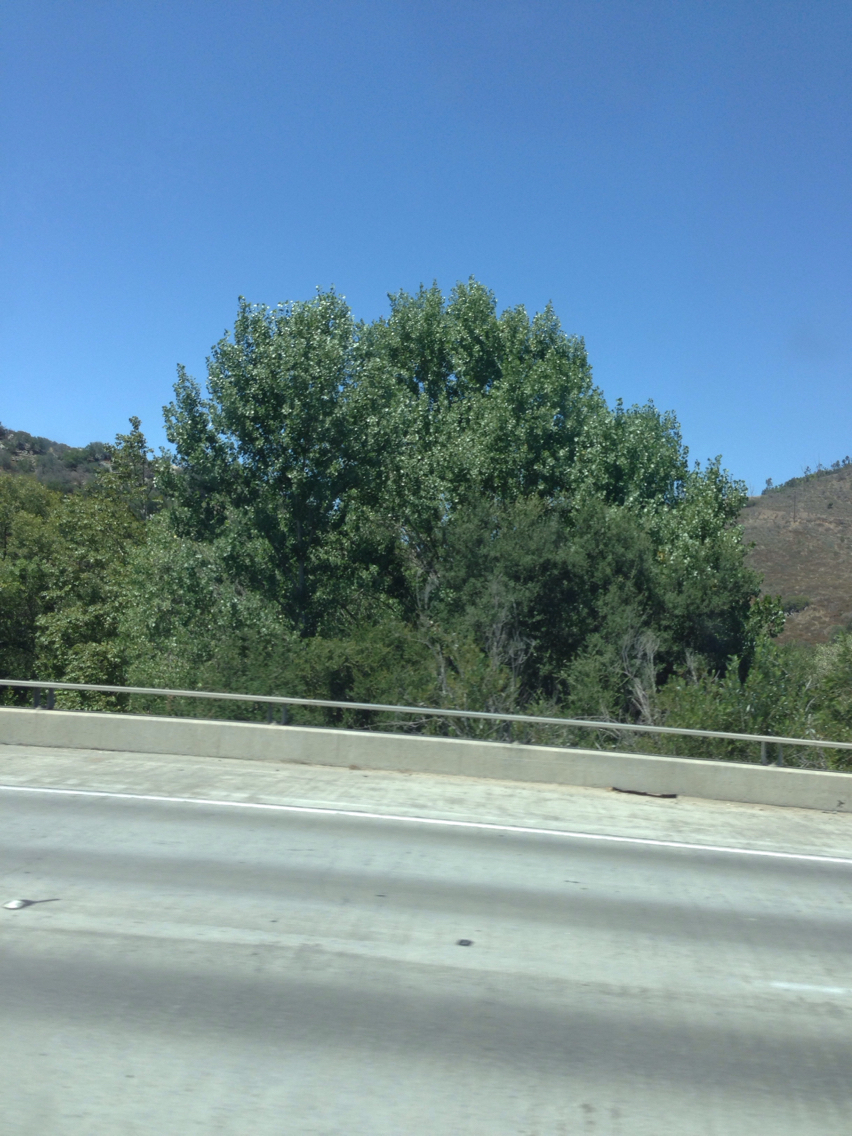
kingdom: Plantae
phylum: Tracheophyta
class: Magnoliopsida
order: Malpighiales
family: Salicaceae
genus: Populus
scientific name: Populus fremontii
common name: Fremont's cottonwood
